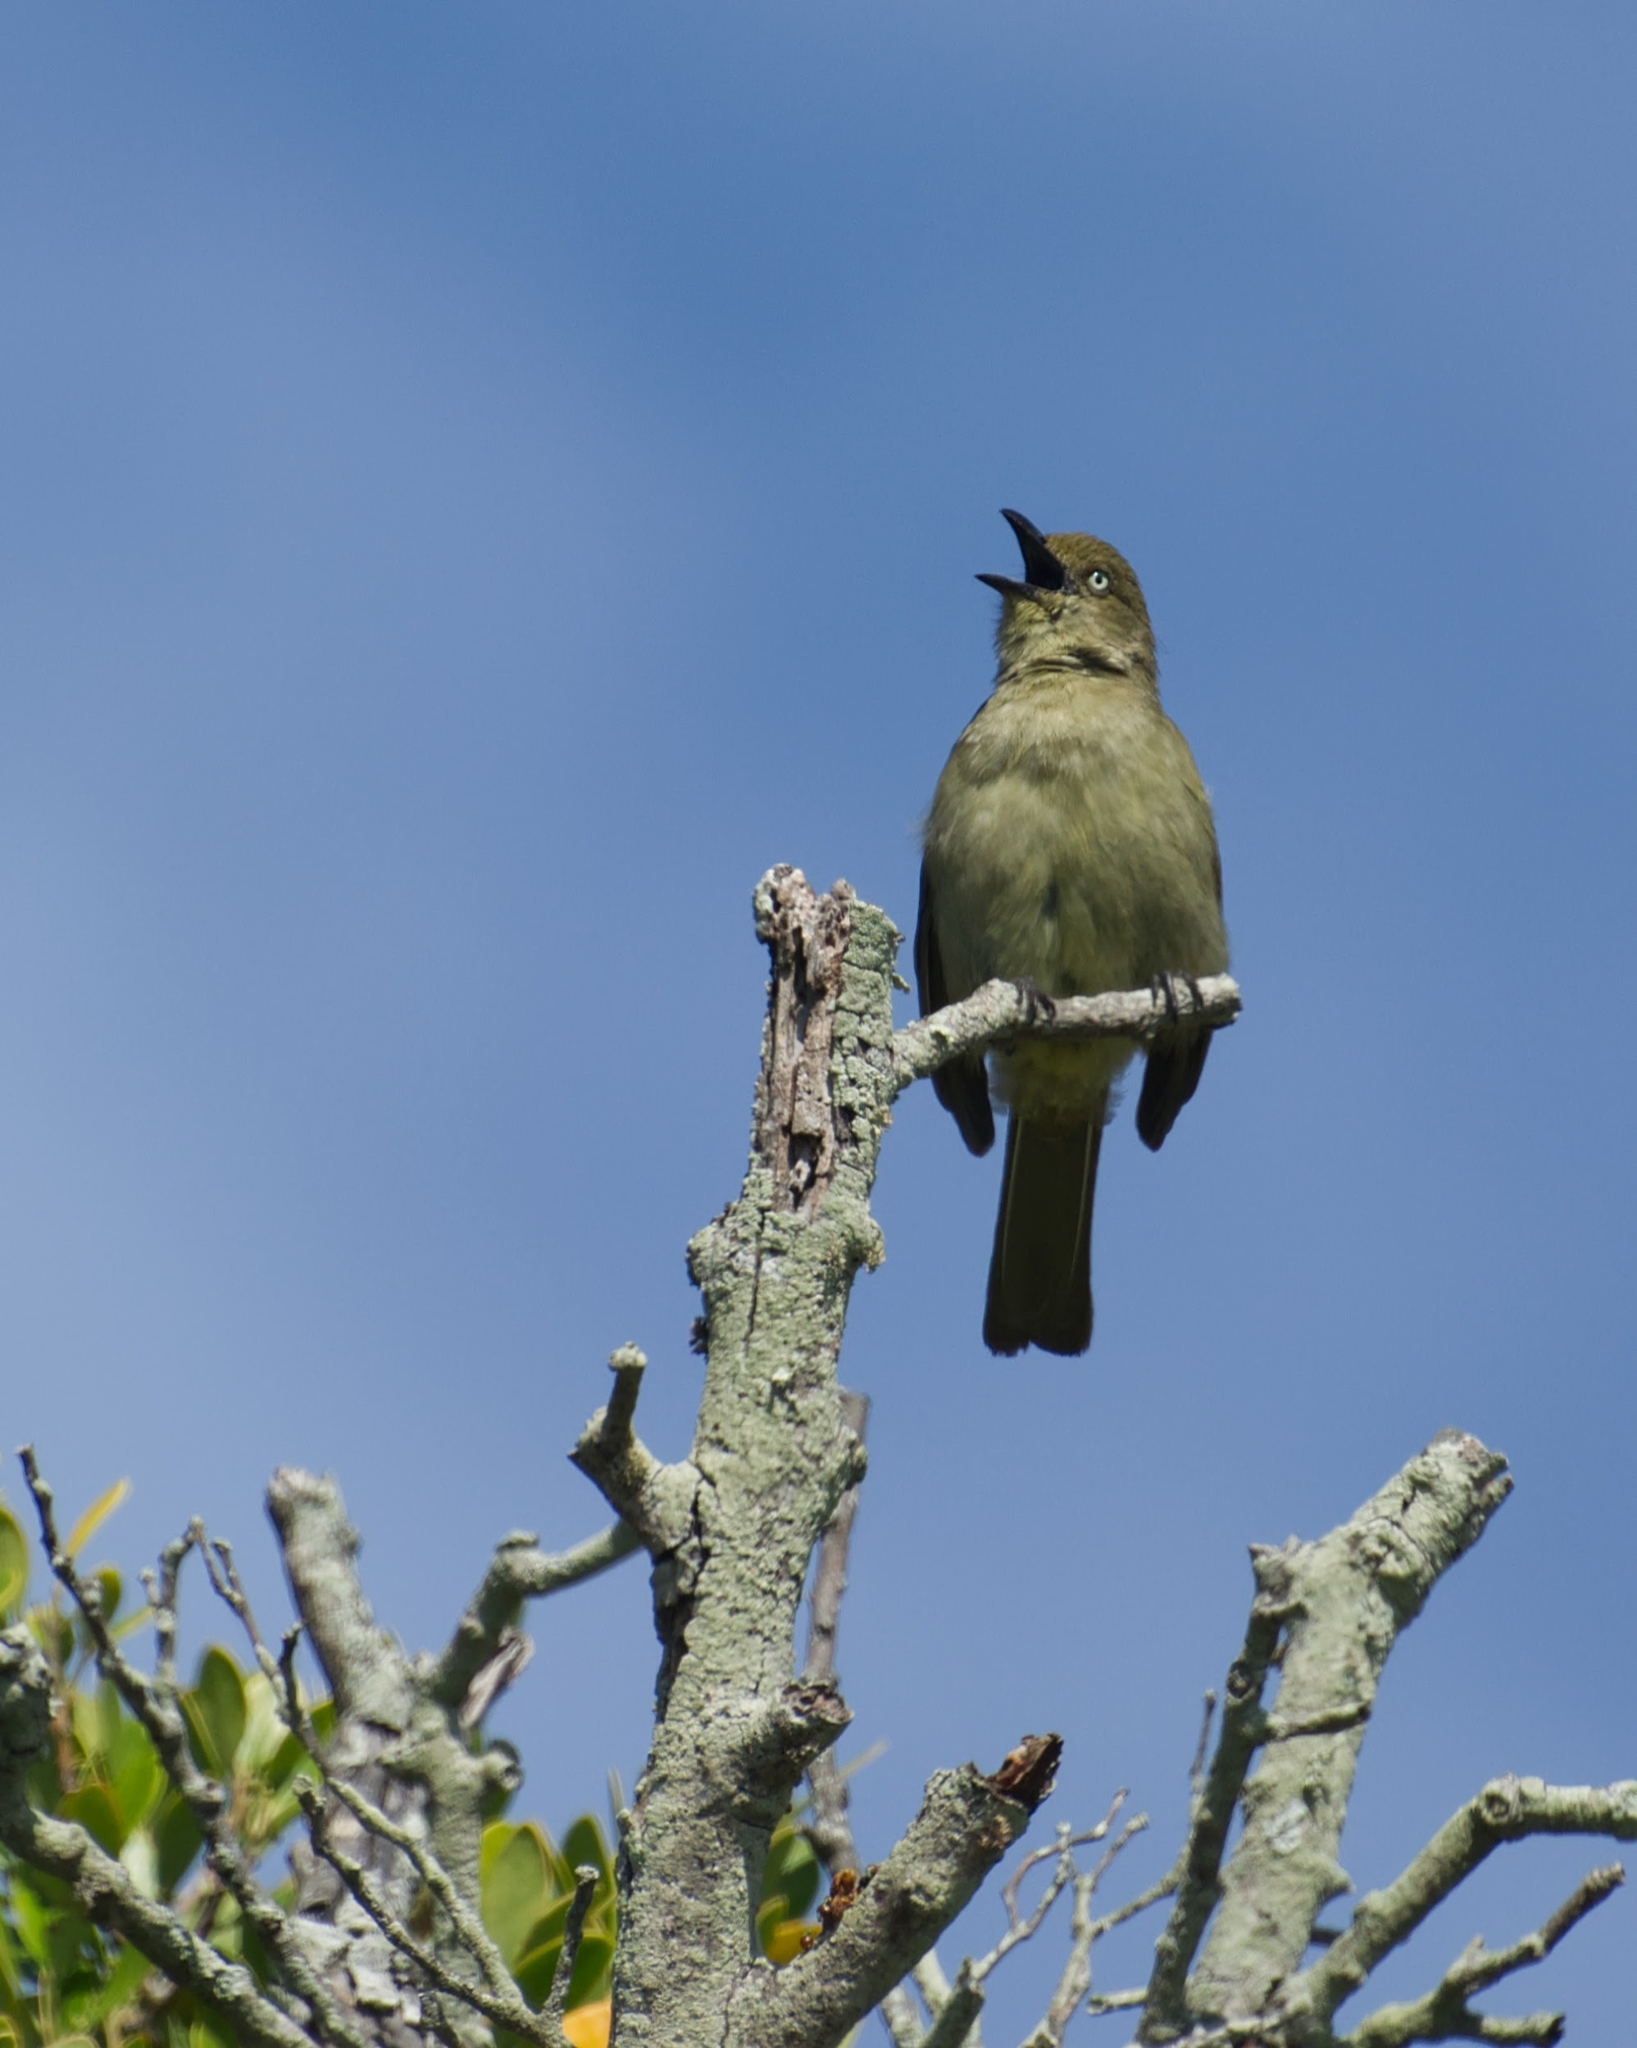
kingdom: Animalia
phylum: Chordata
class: Aves
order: Passeriformes
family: Pycnonotidae
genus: Andropadus
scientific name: Andropadus importunus
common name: Sombre greenbul
